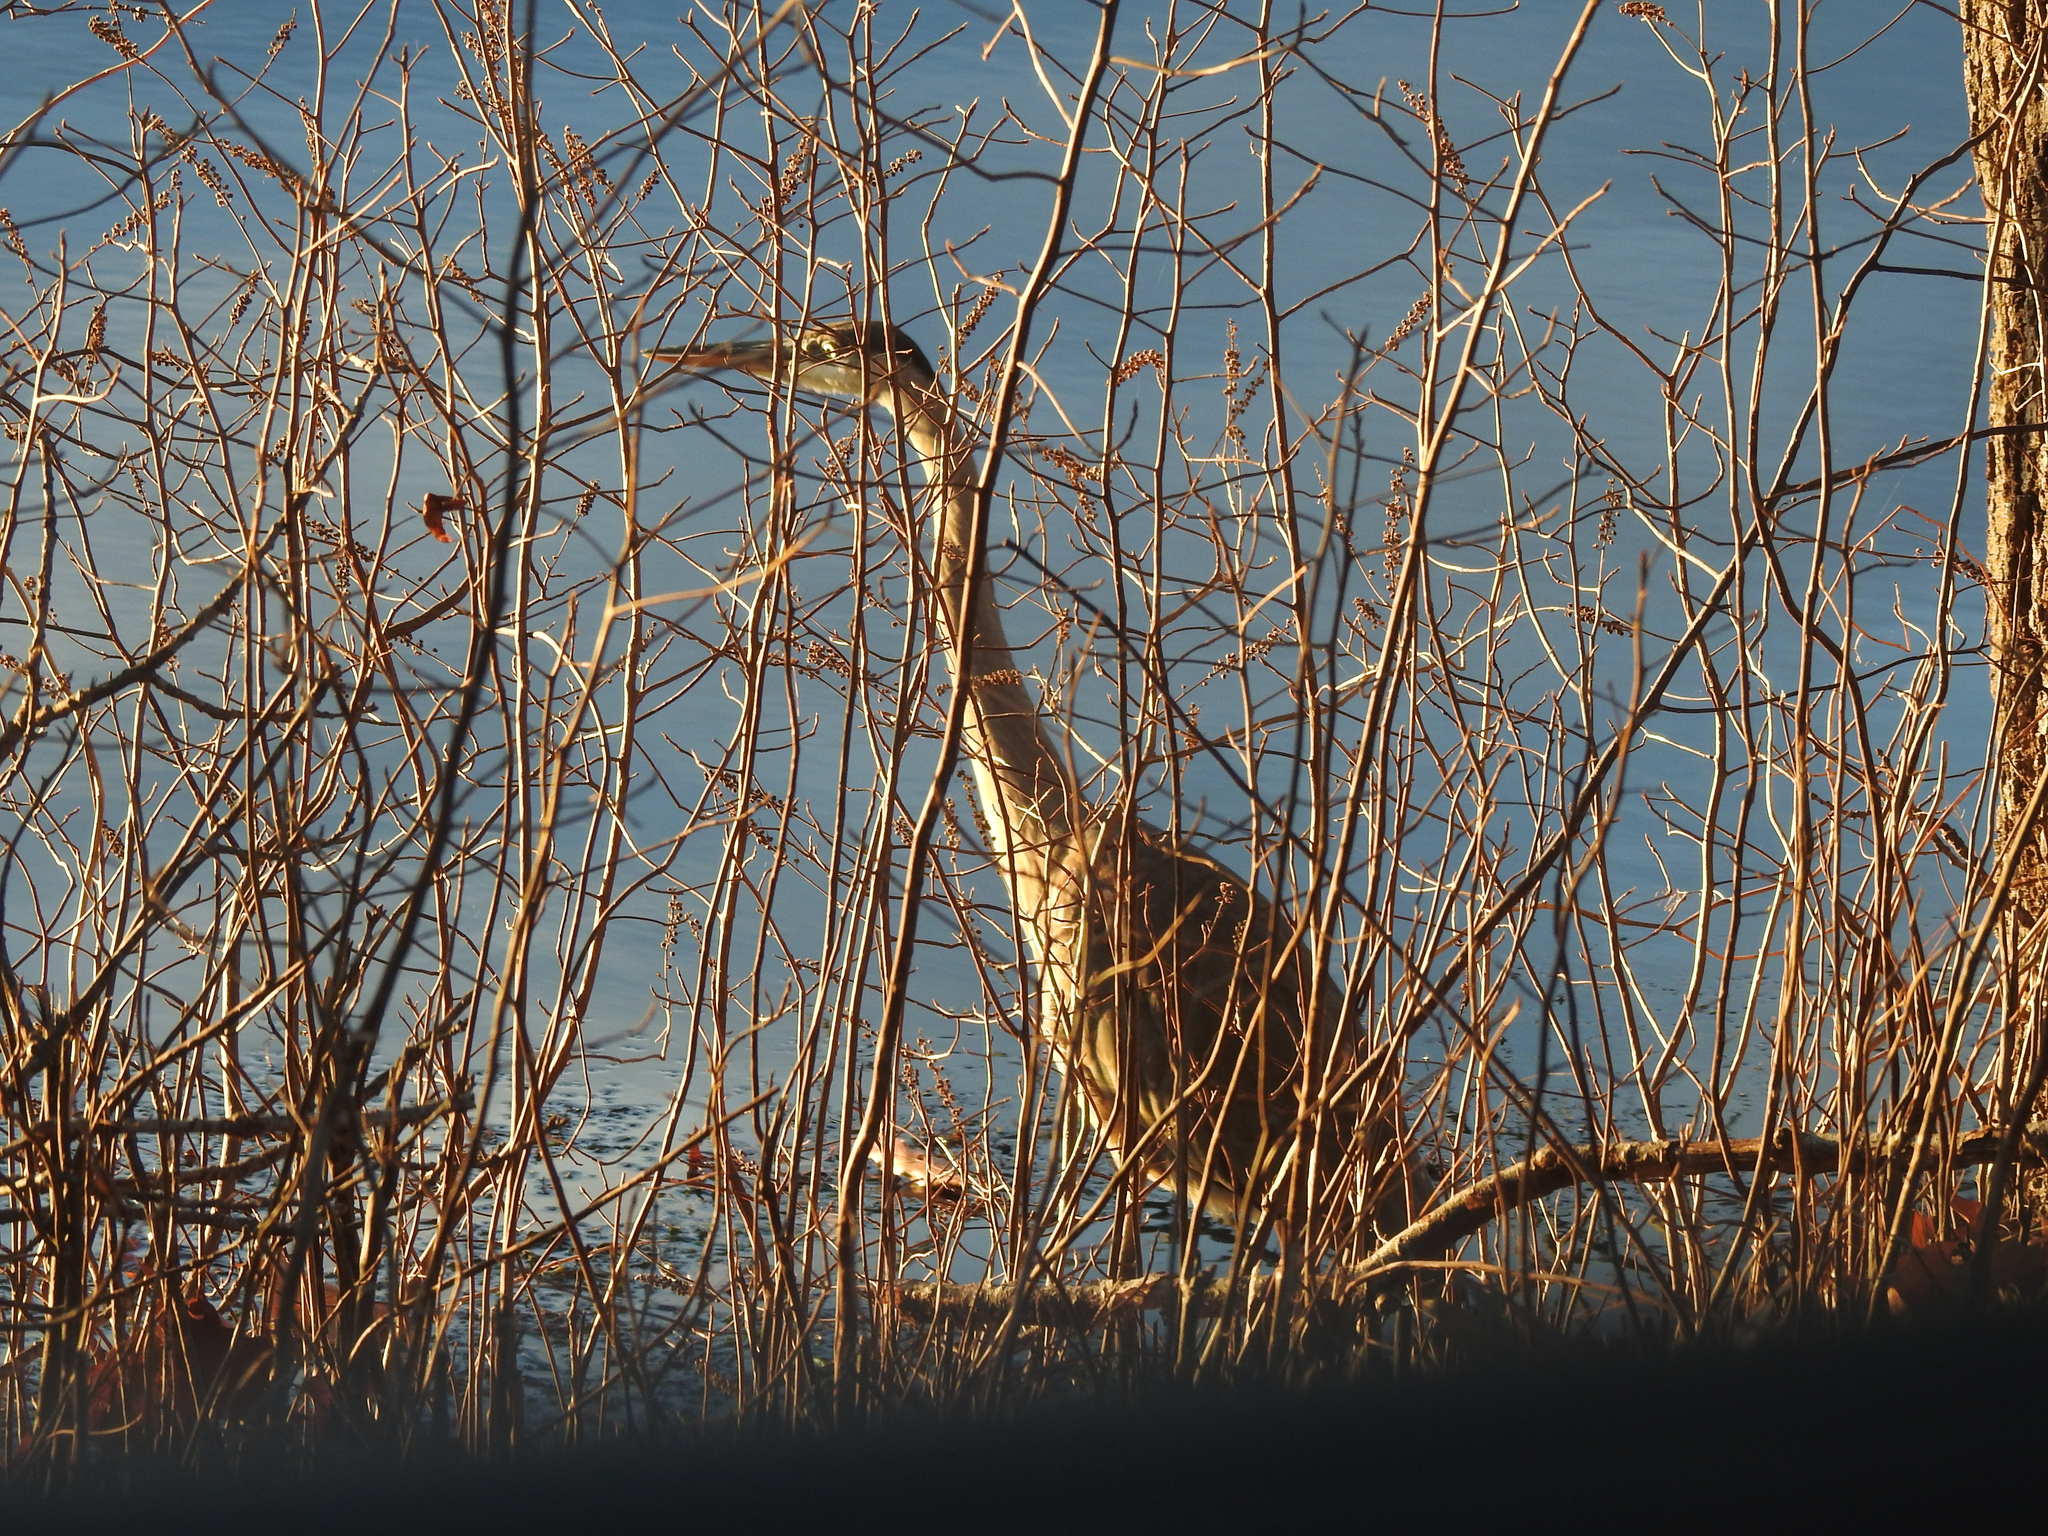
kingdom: Animalia
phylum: Chordata
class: Aves
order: Pelecaniformes
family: Ardeidae
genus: Ardea
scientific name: Ardea herodias
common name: Great blue heron
